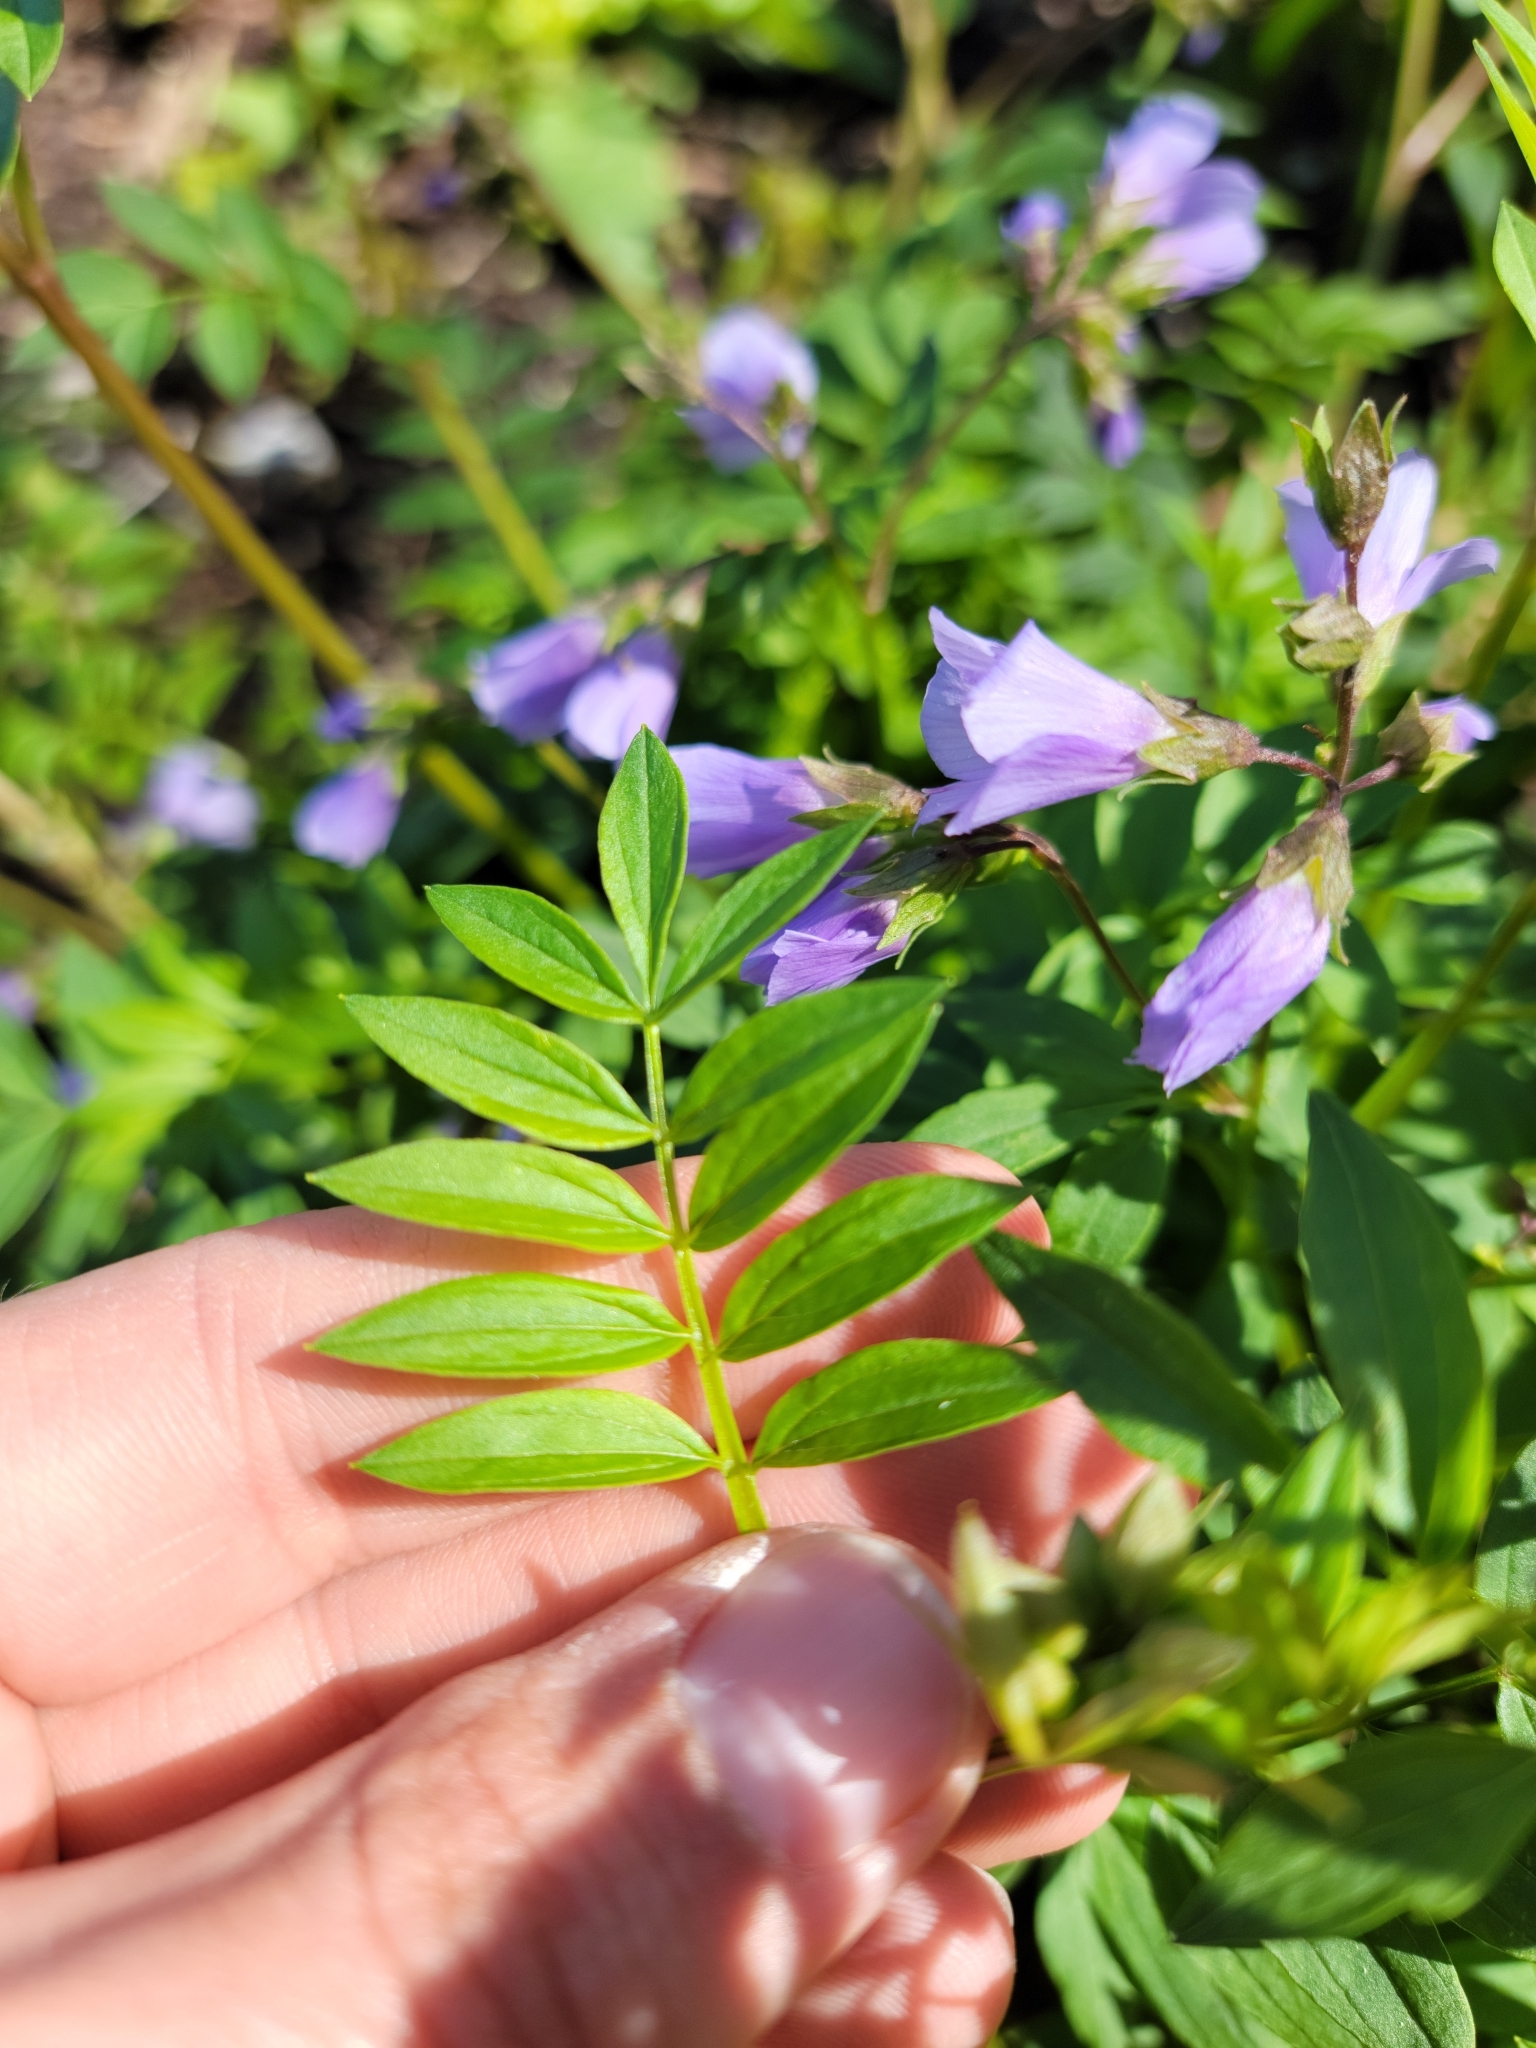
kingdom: Plantae
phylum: Tracheophyta
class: Magnoliopsida
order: Ericales
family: Polemoniaceae
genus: Polemonium
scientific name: Polemonium reptans
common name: Creeping jacob's-ladder
